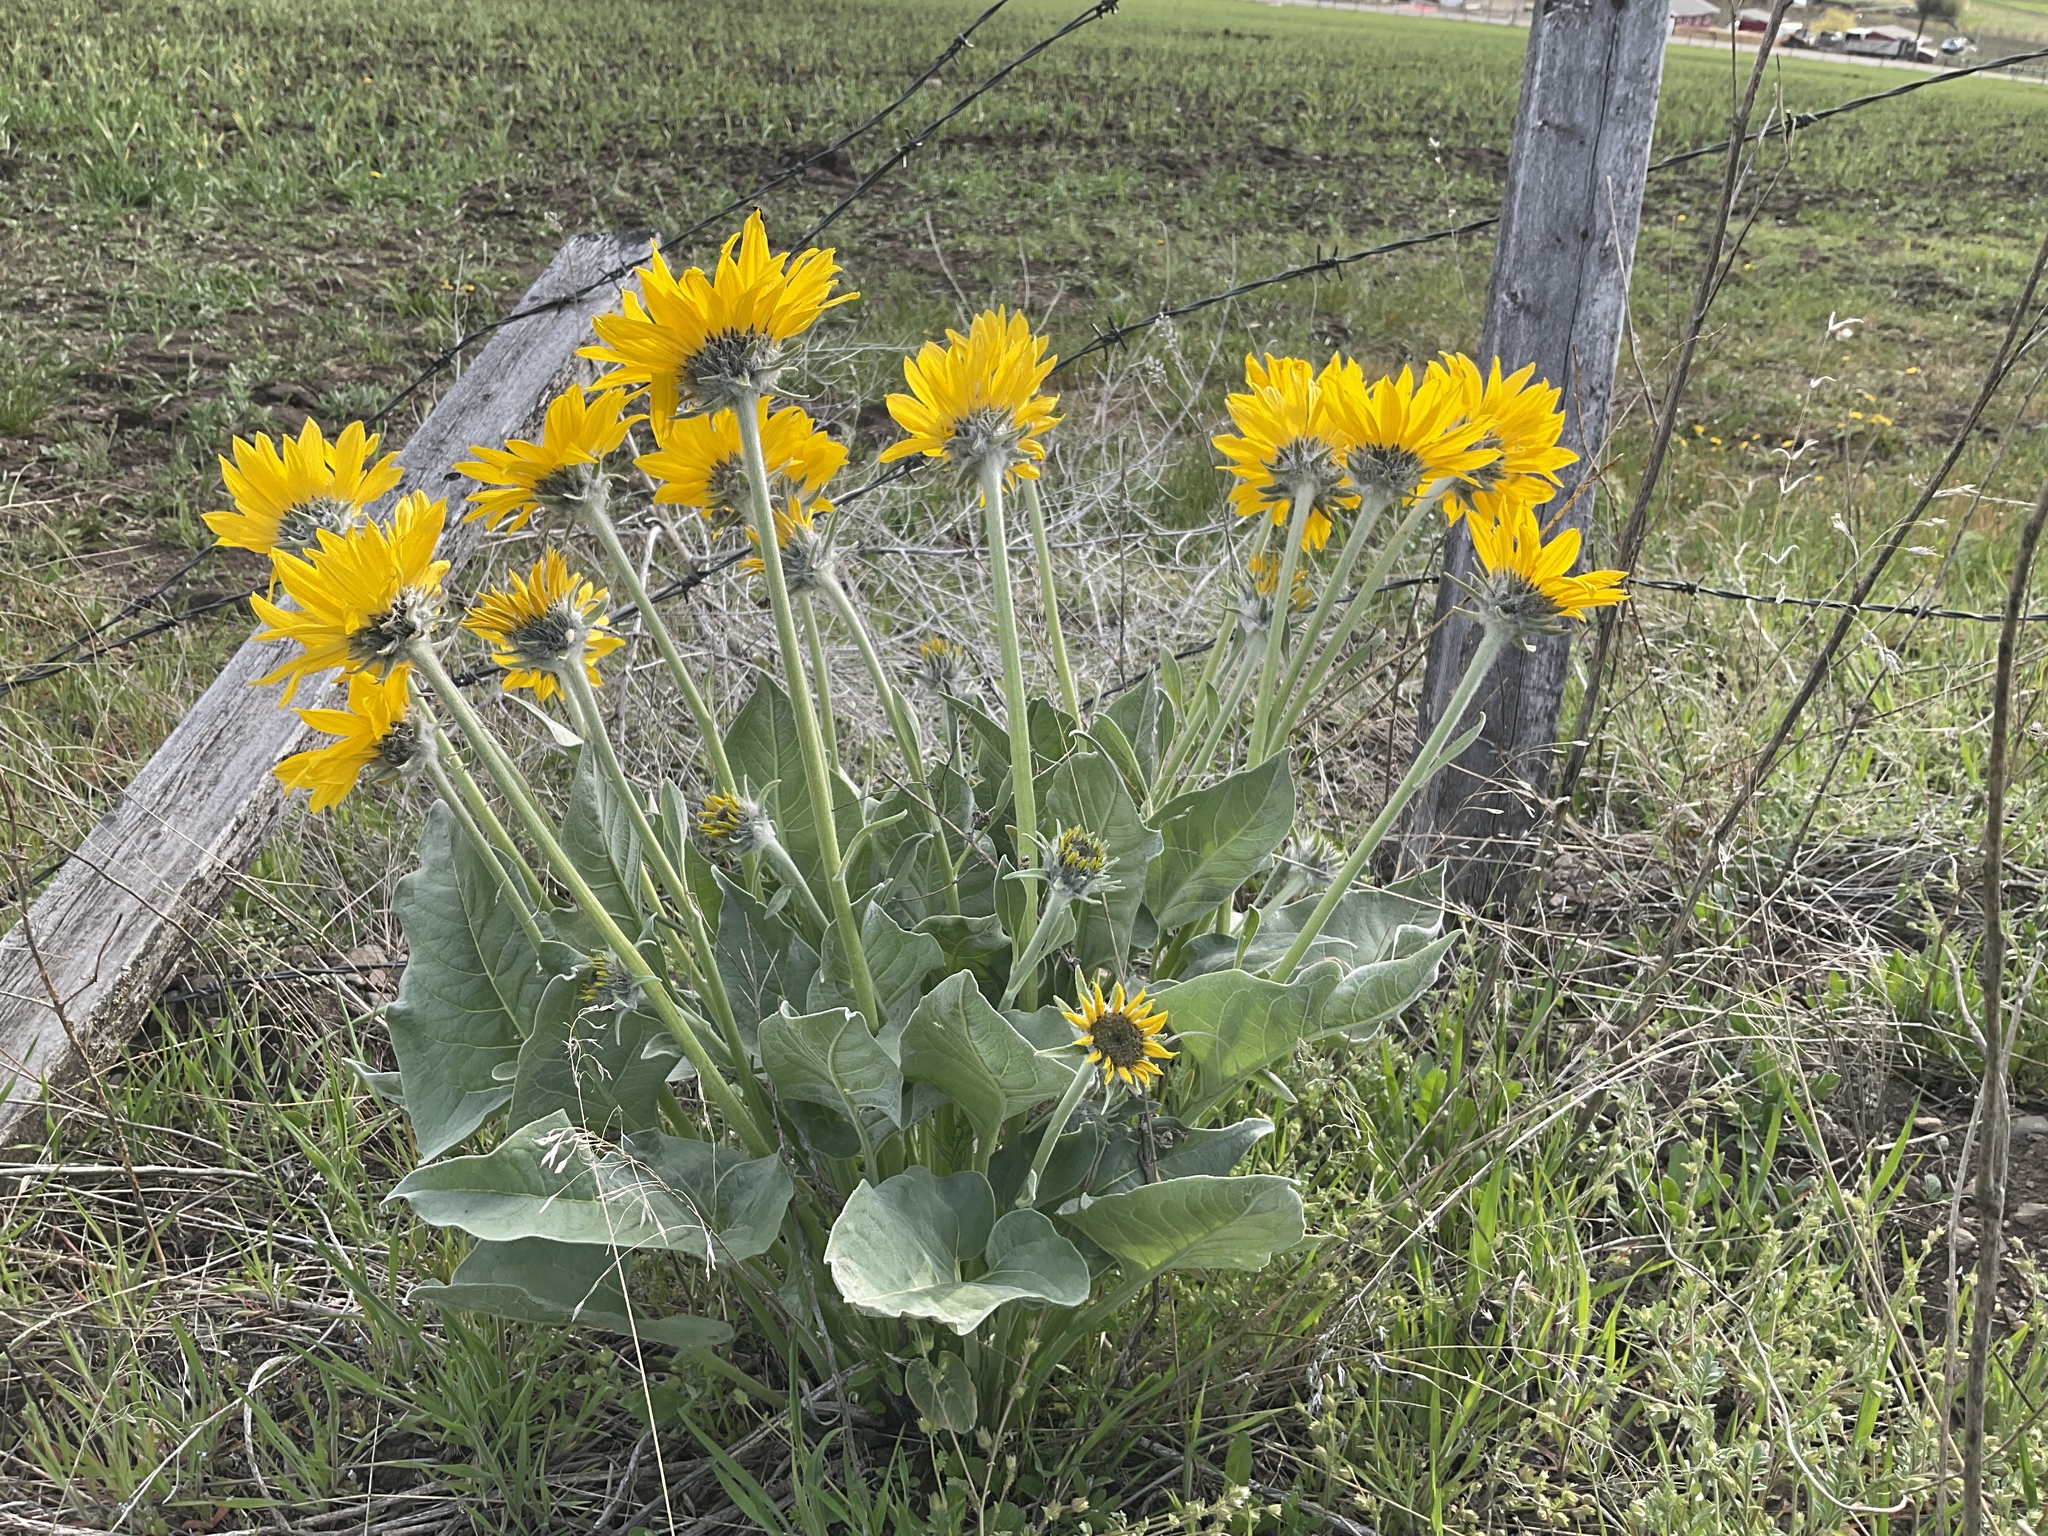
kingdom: Plantae
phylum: Tracheophyta
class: Magnoliopsida
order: Asterales
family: Asteraceae
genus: Wyethia
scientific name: Wyethia sagittata
